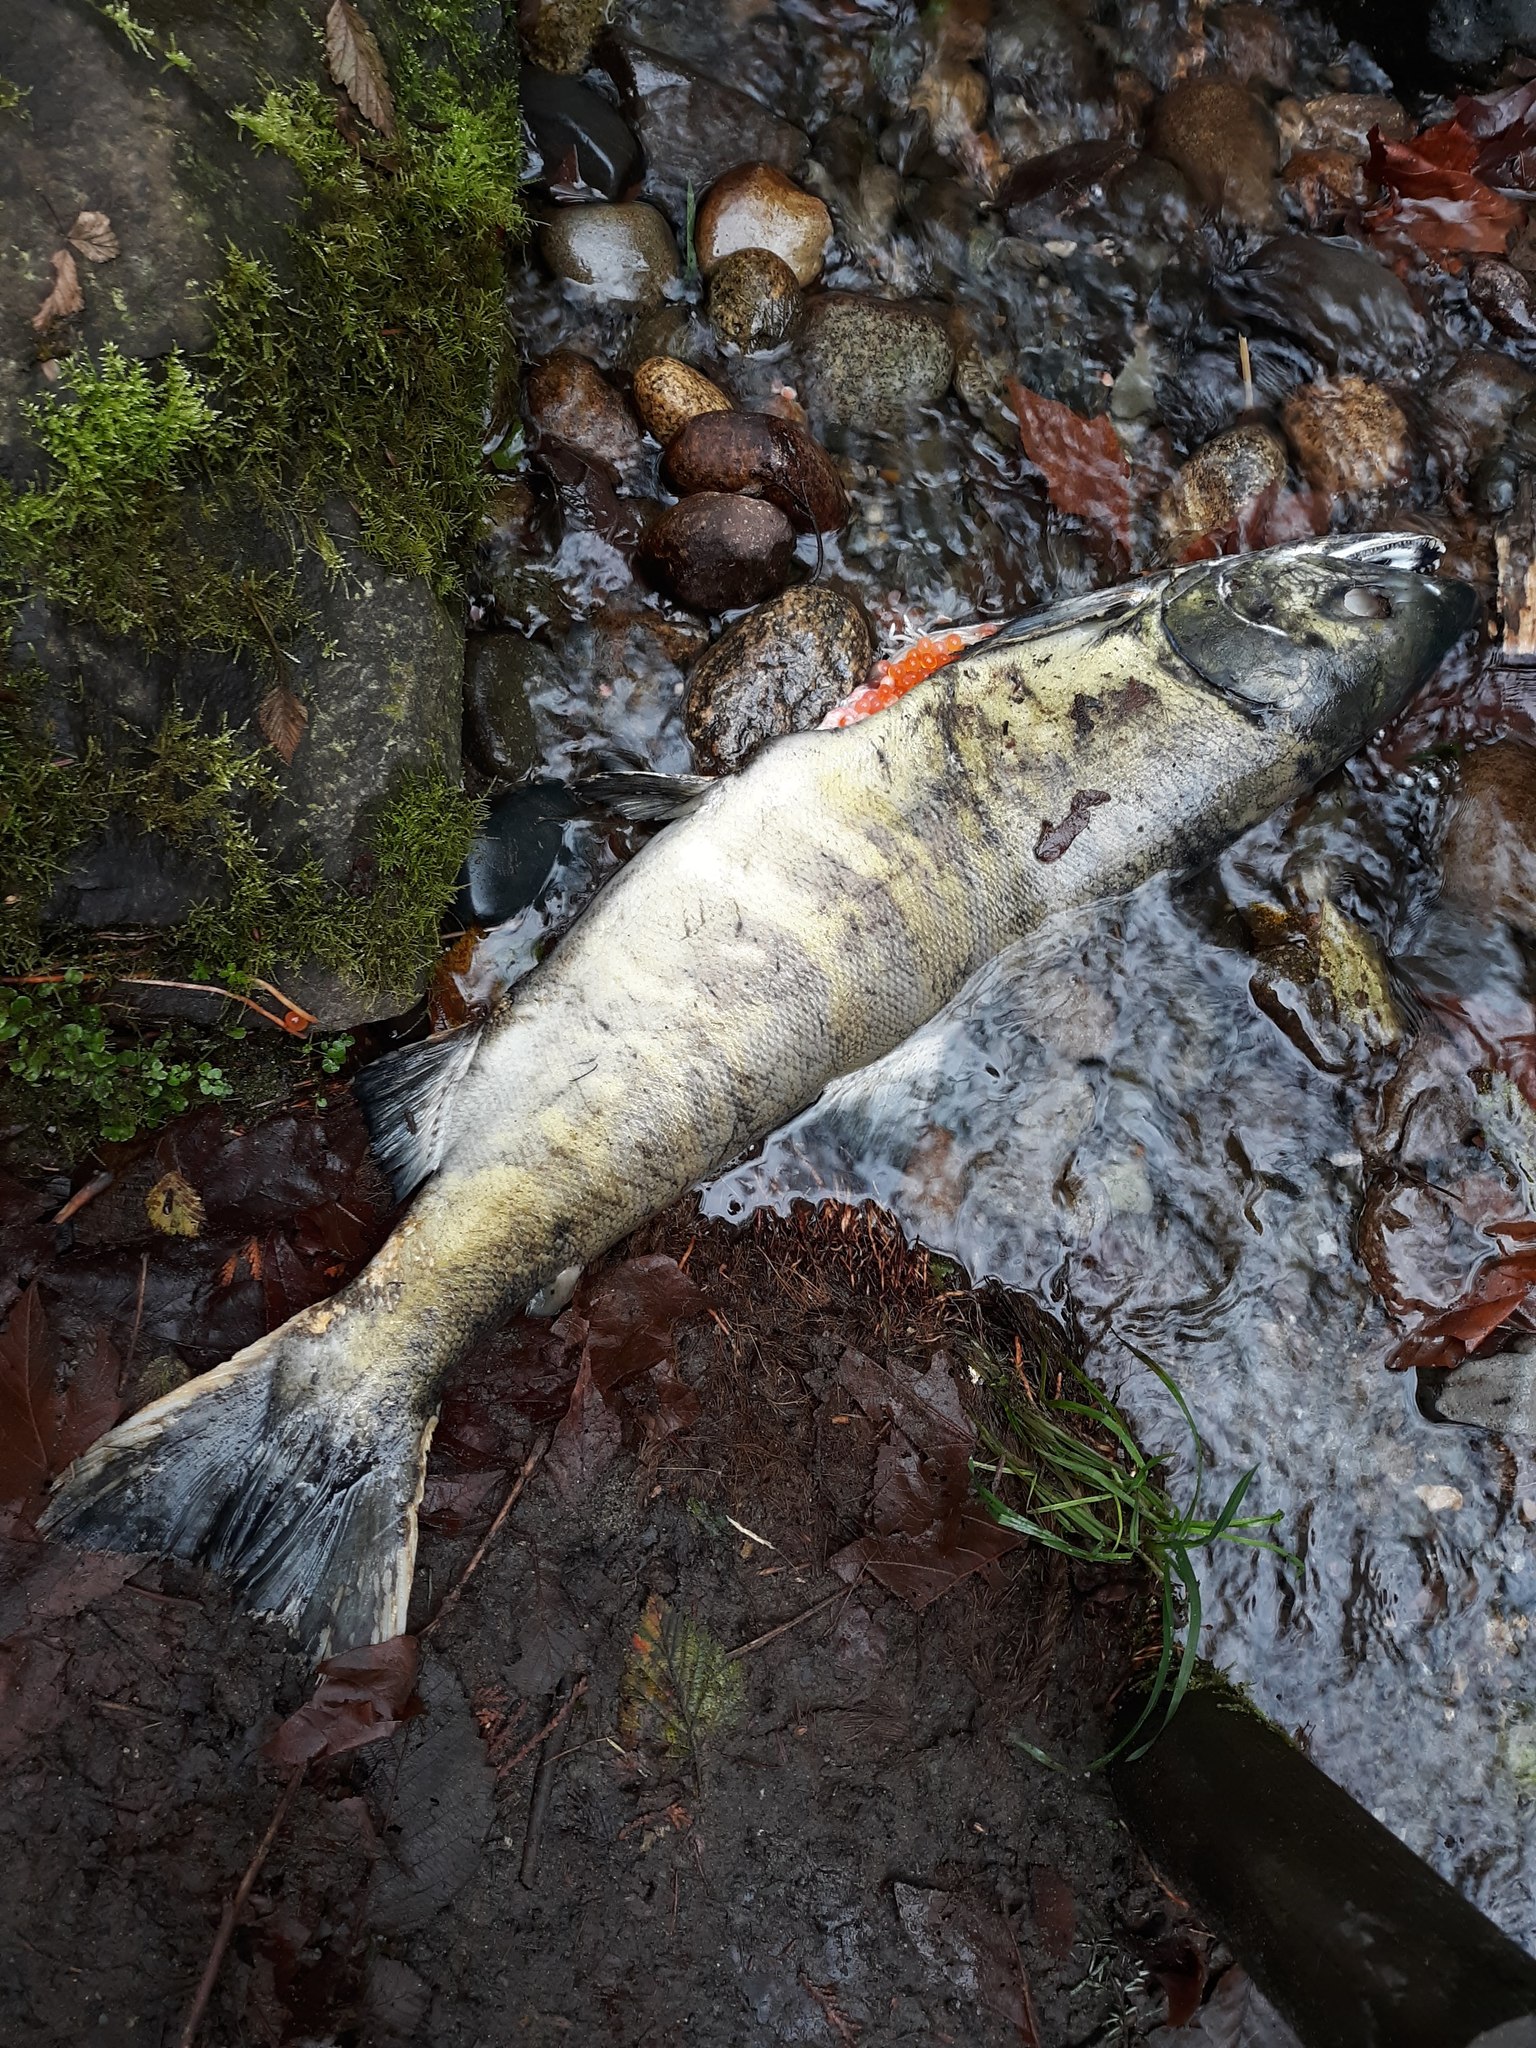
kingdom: Animalia
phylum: Chordata
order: Salmoniformes
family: Salmonidae
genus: Oncorhynchus
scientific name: Oncorhynchus keta
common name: Chum salmon
